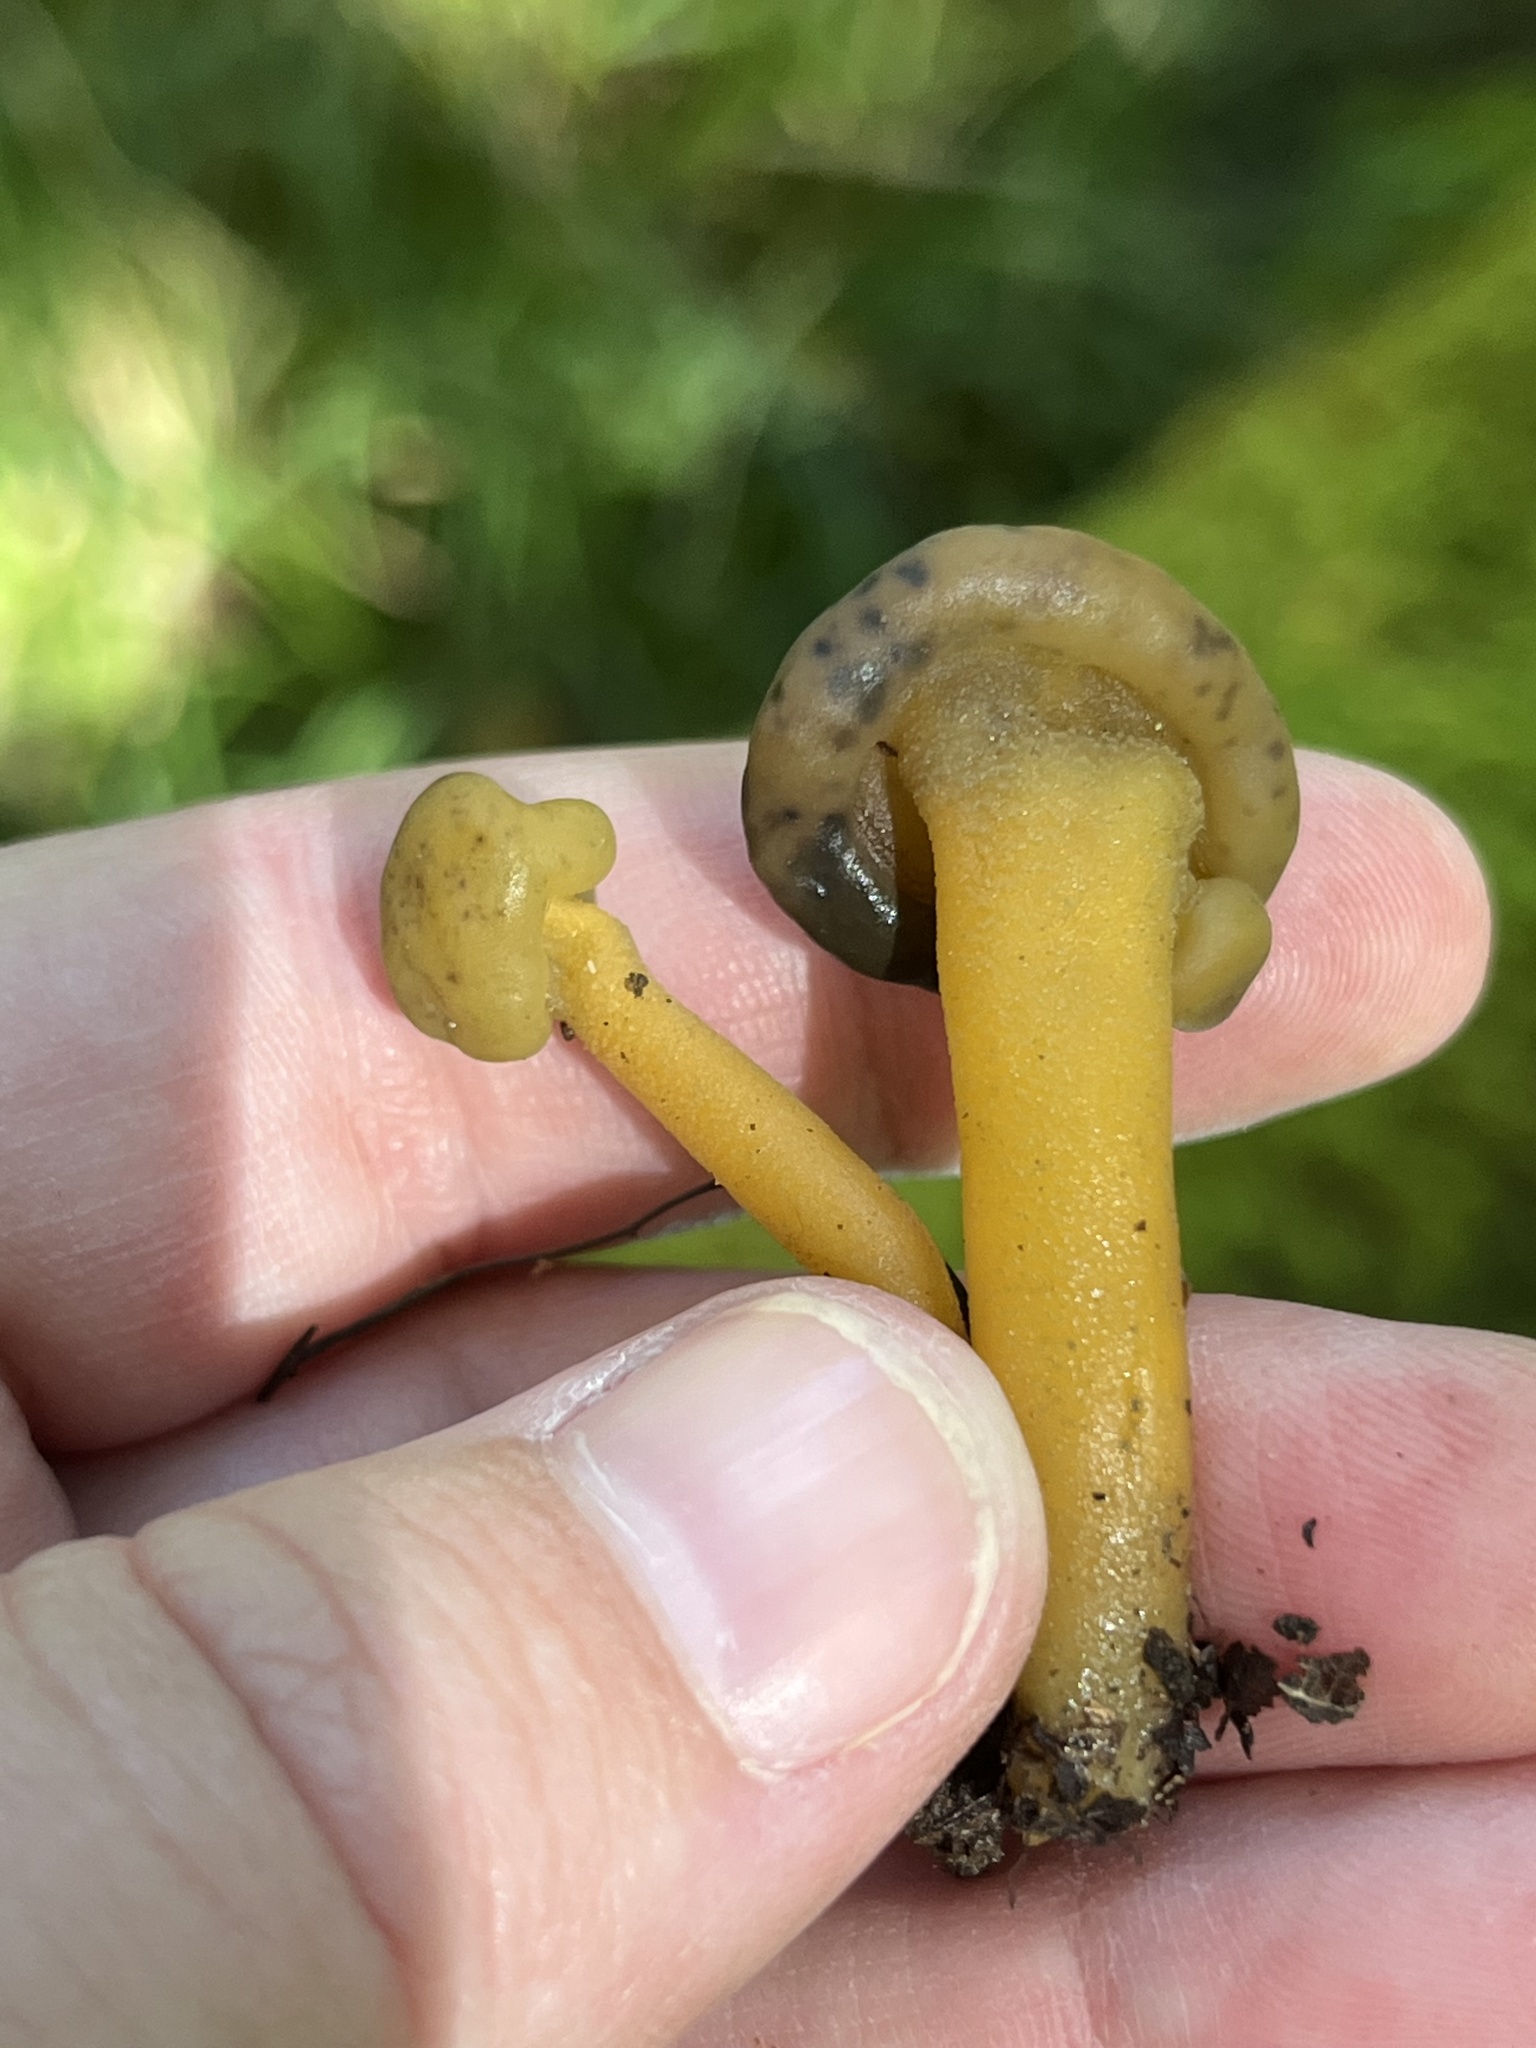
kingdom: Fungi
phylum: Ascomycota
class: Sordariomycetes
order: Hypocreales
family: Hypocreaceae
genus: Hypomyces
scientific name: Hypomyces leotiicola
